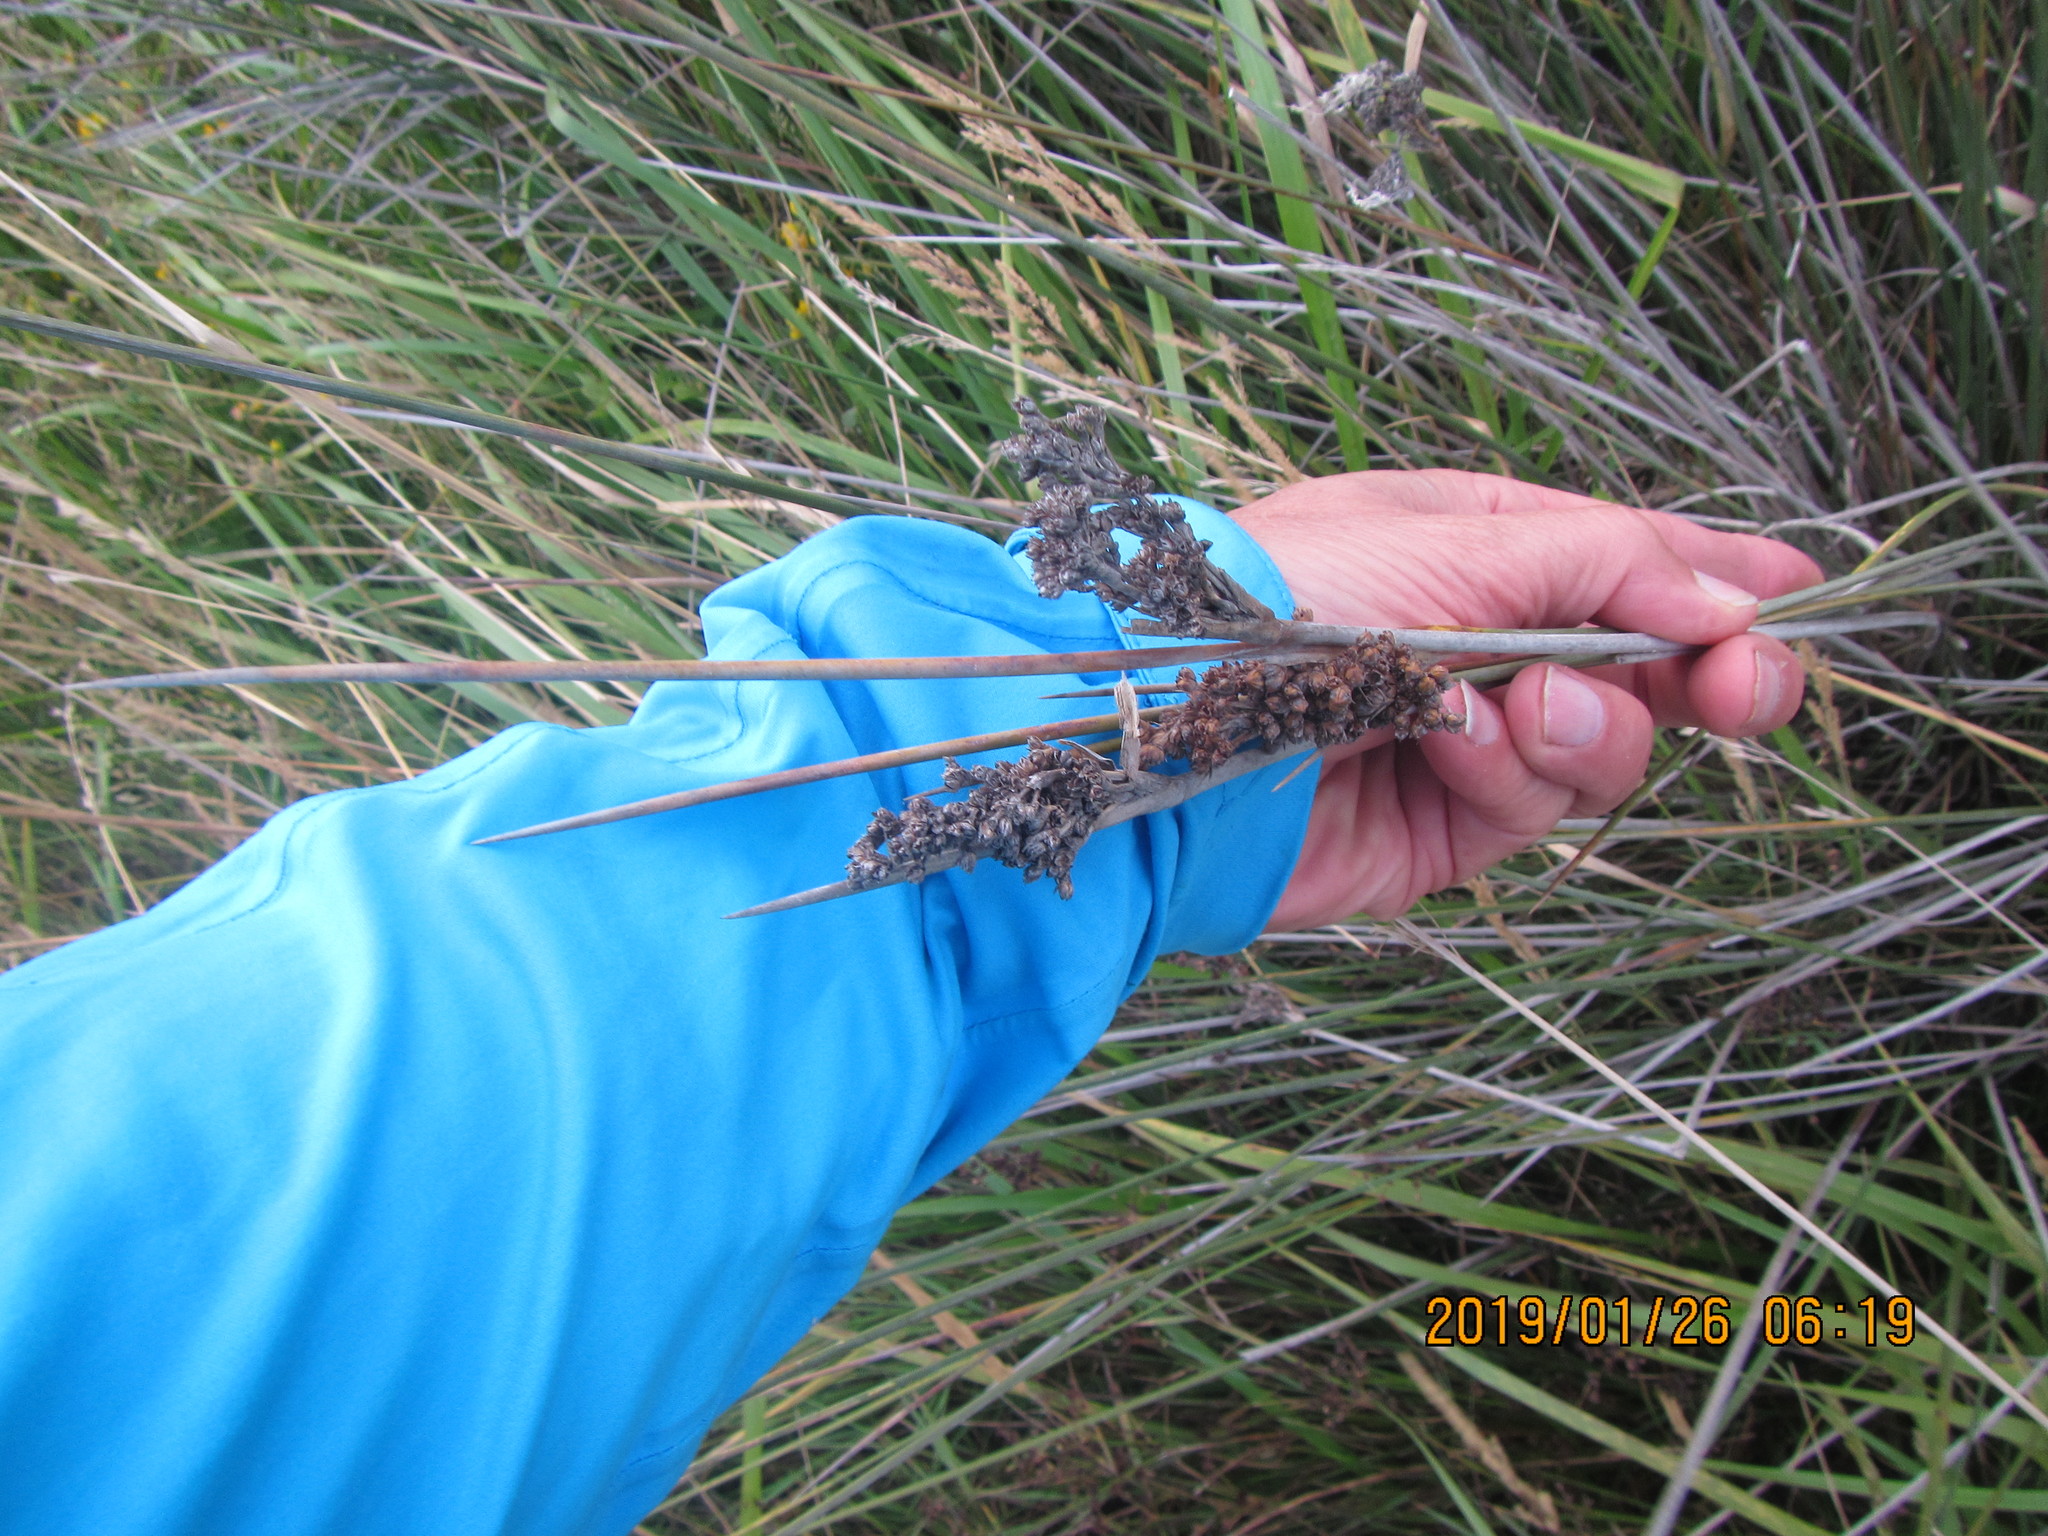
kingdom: Plantae
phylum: Tracheophyta
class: Liliopsida
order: Poales
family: Juncaceae
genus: Juncus
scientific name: Juncus acutus
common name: Sharp rush
